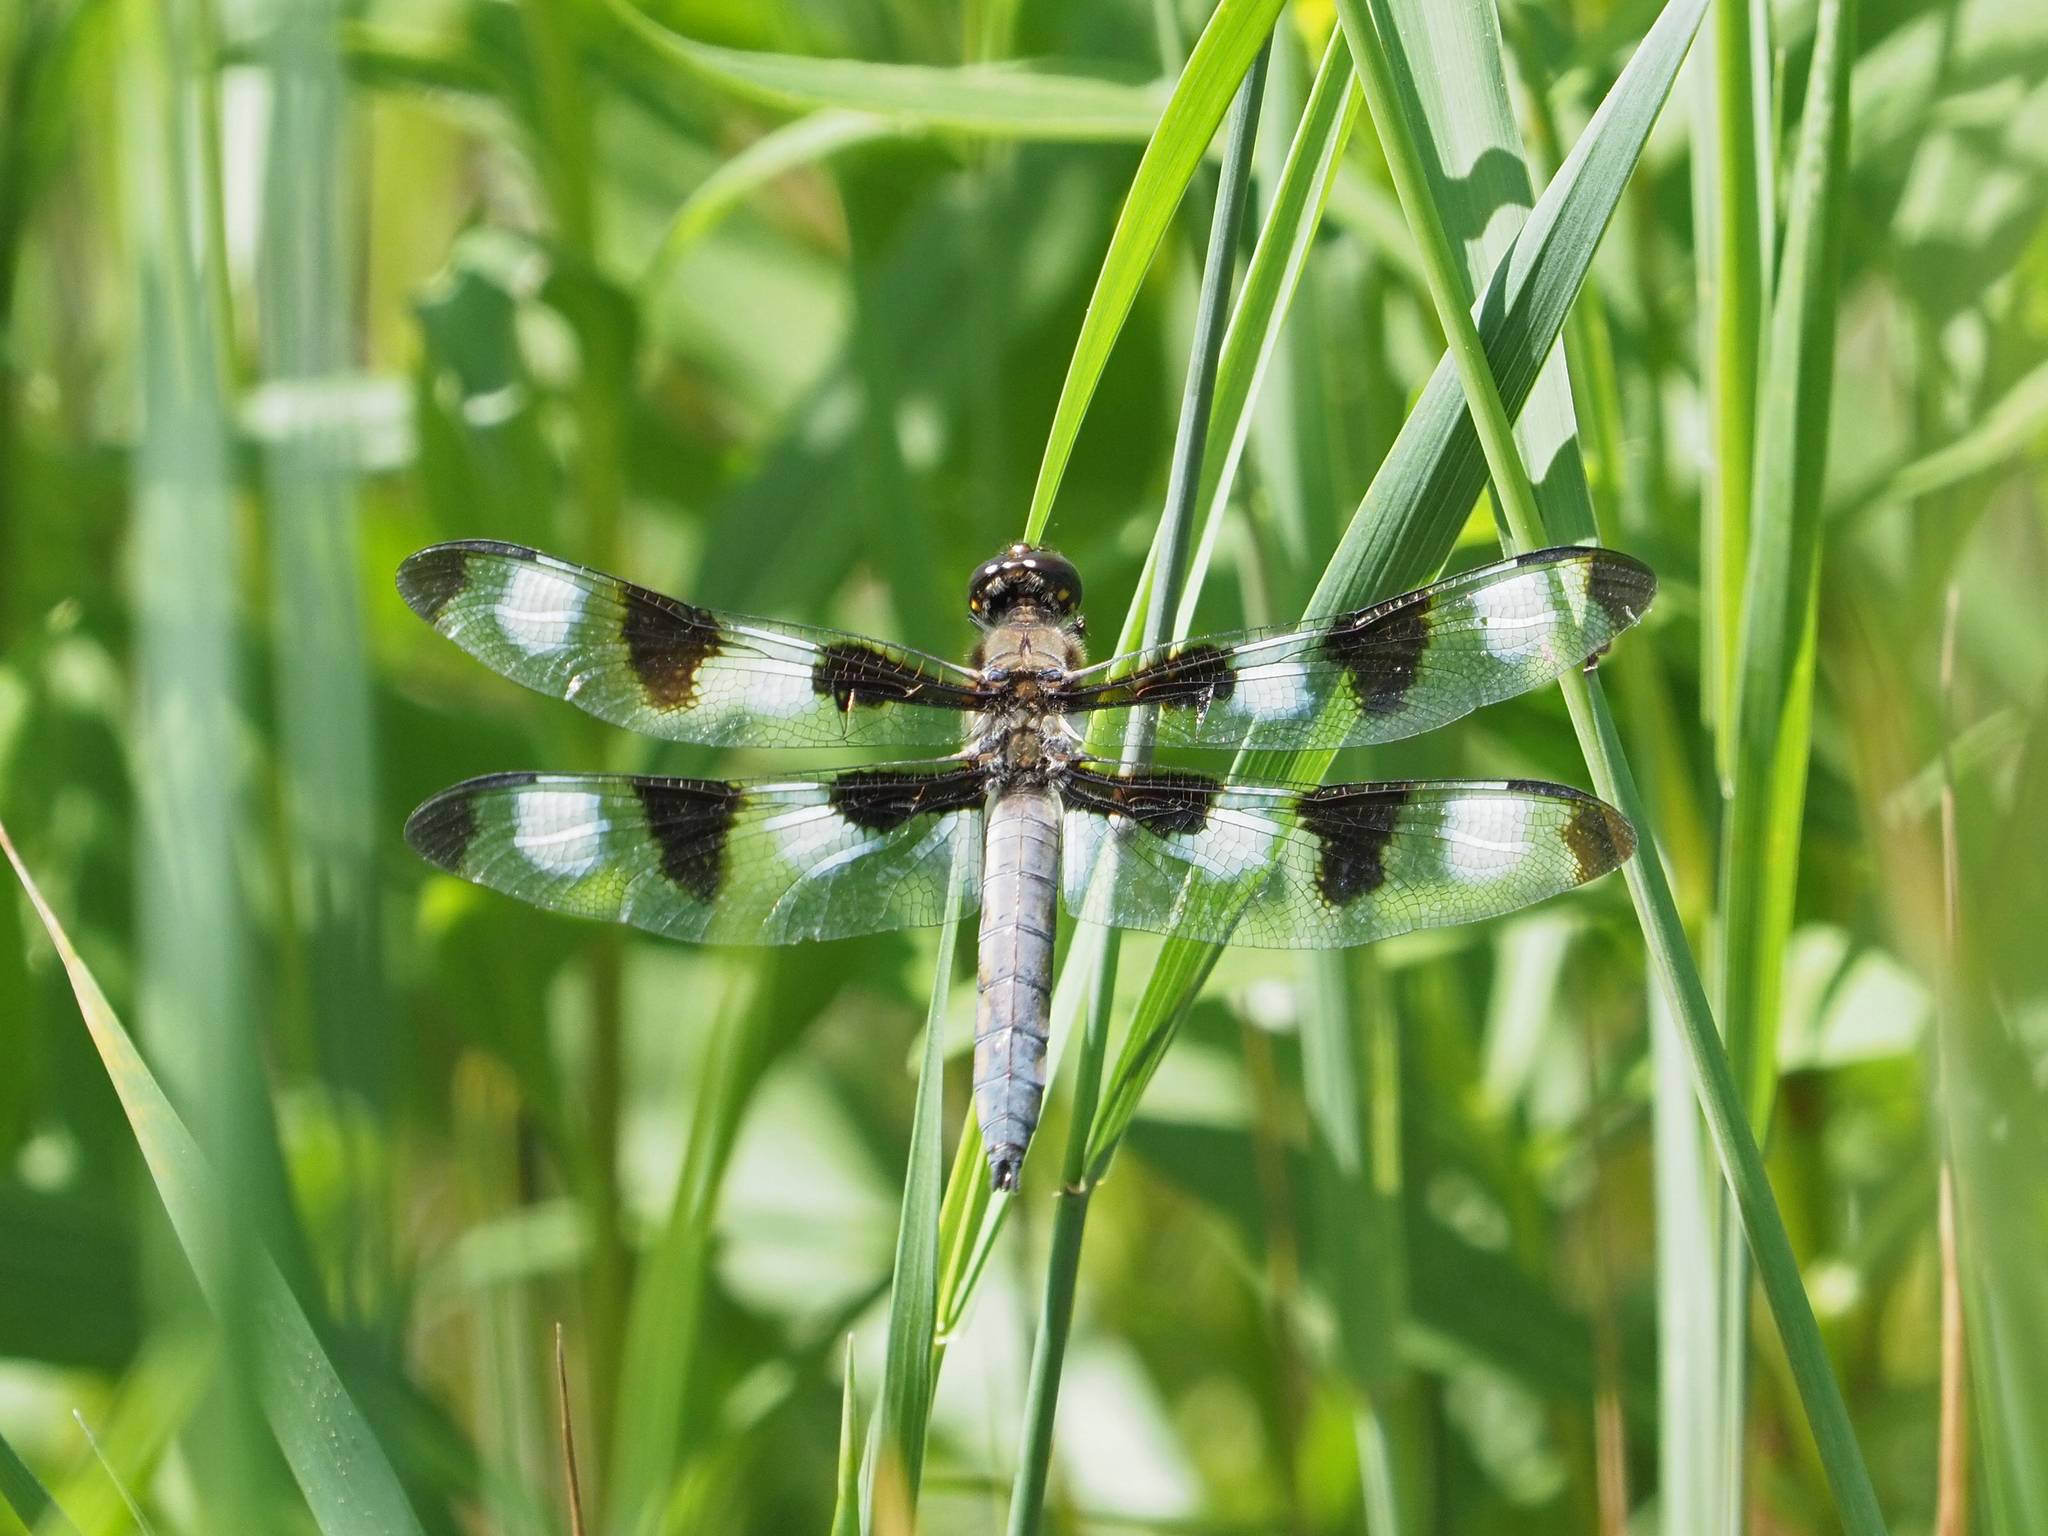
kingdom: Animalia
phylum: Arthropoda
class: Insecta
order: Odonata
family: Libellulidae
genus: Libellula
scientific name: Libellula pulchella
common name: Twelve-spotted skimmer
